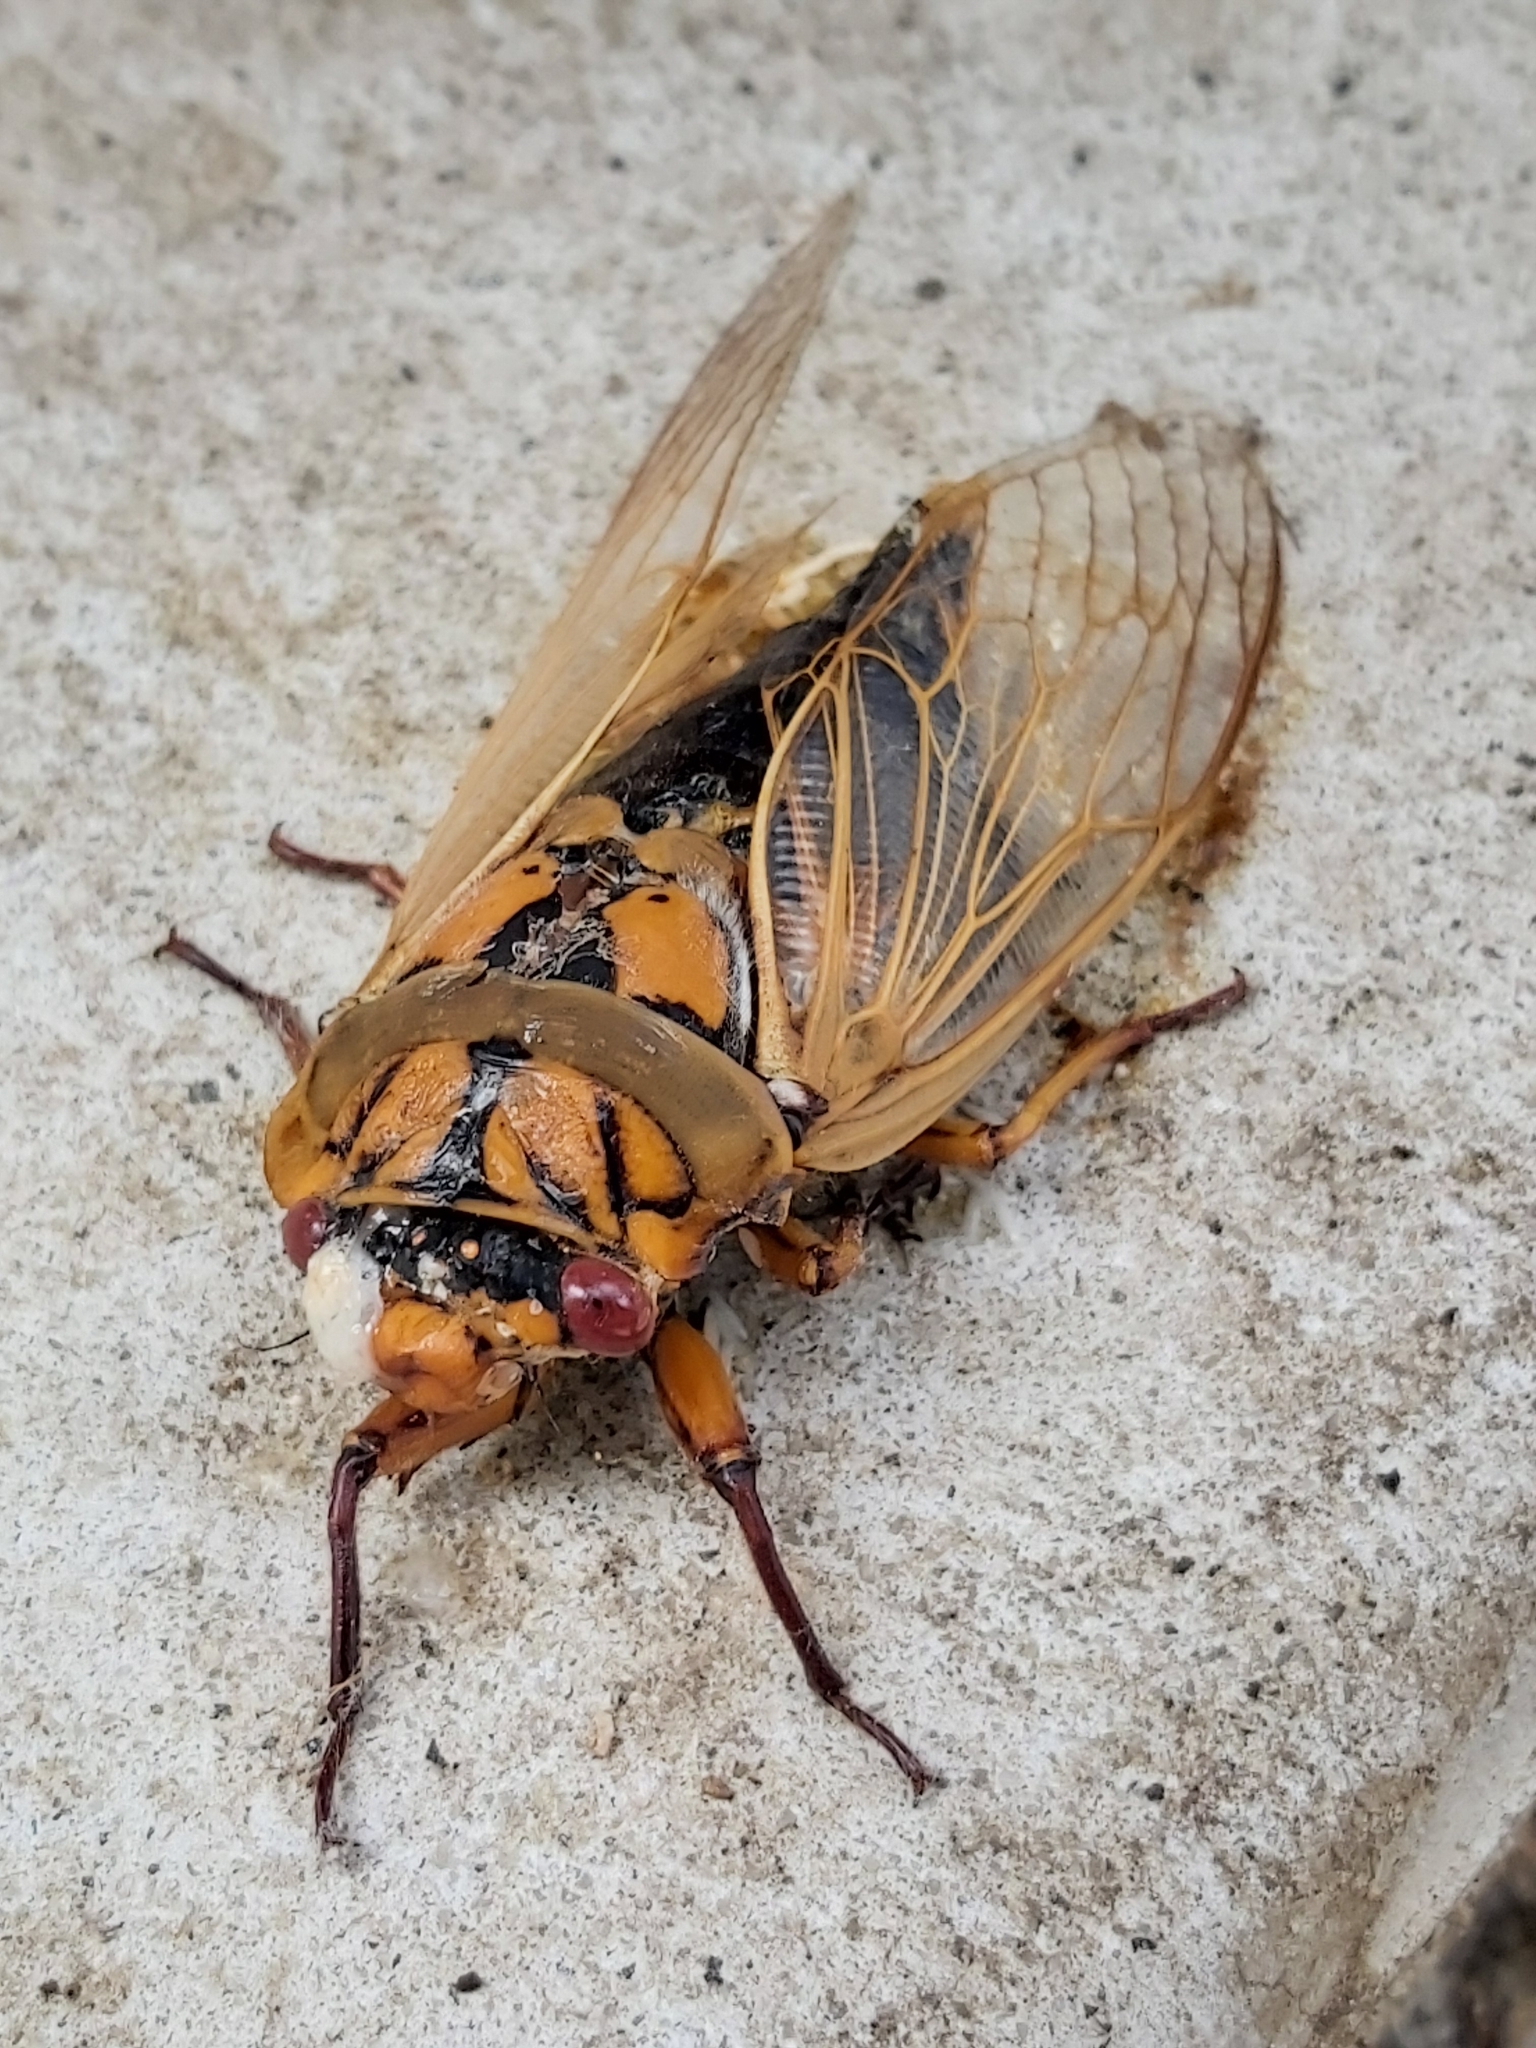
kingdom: Animalia
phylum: Arthropoda
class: Insecta
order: Hemiptera
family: Cicadidae
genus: Cyclochila
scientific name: Cyclochila australasiae
